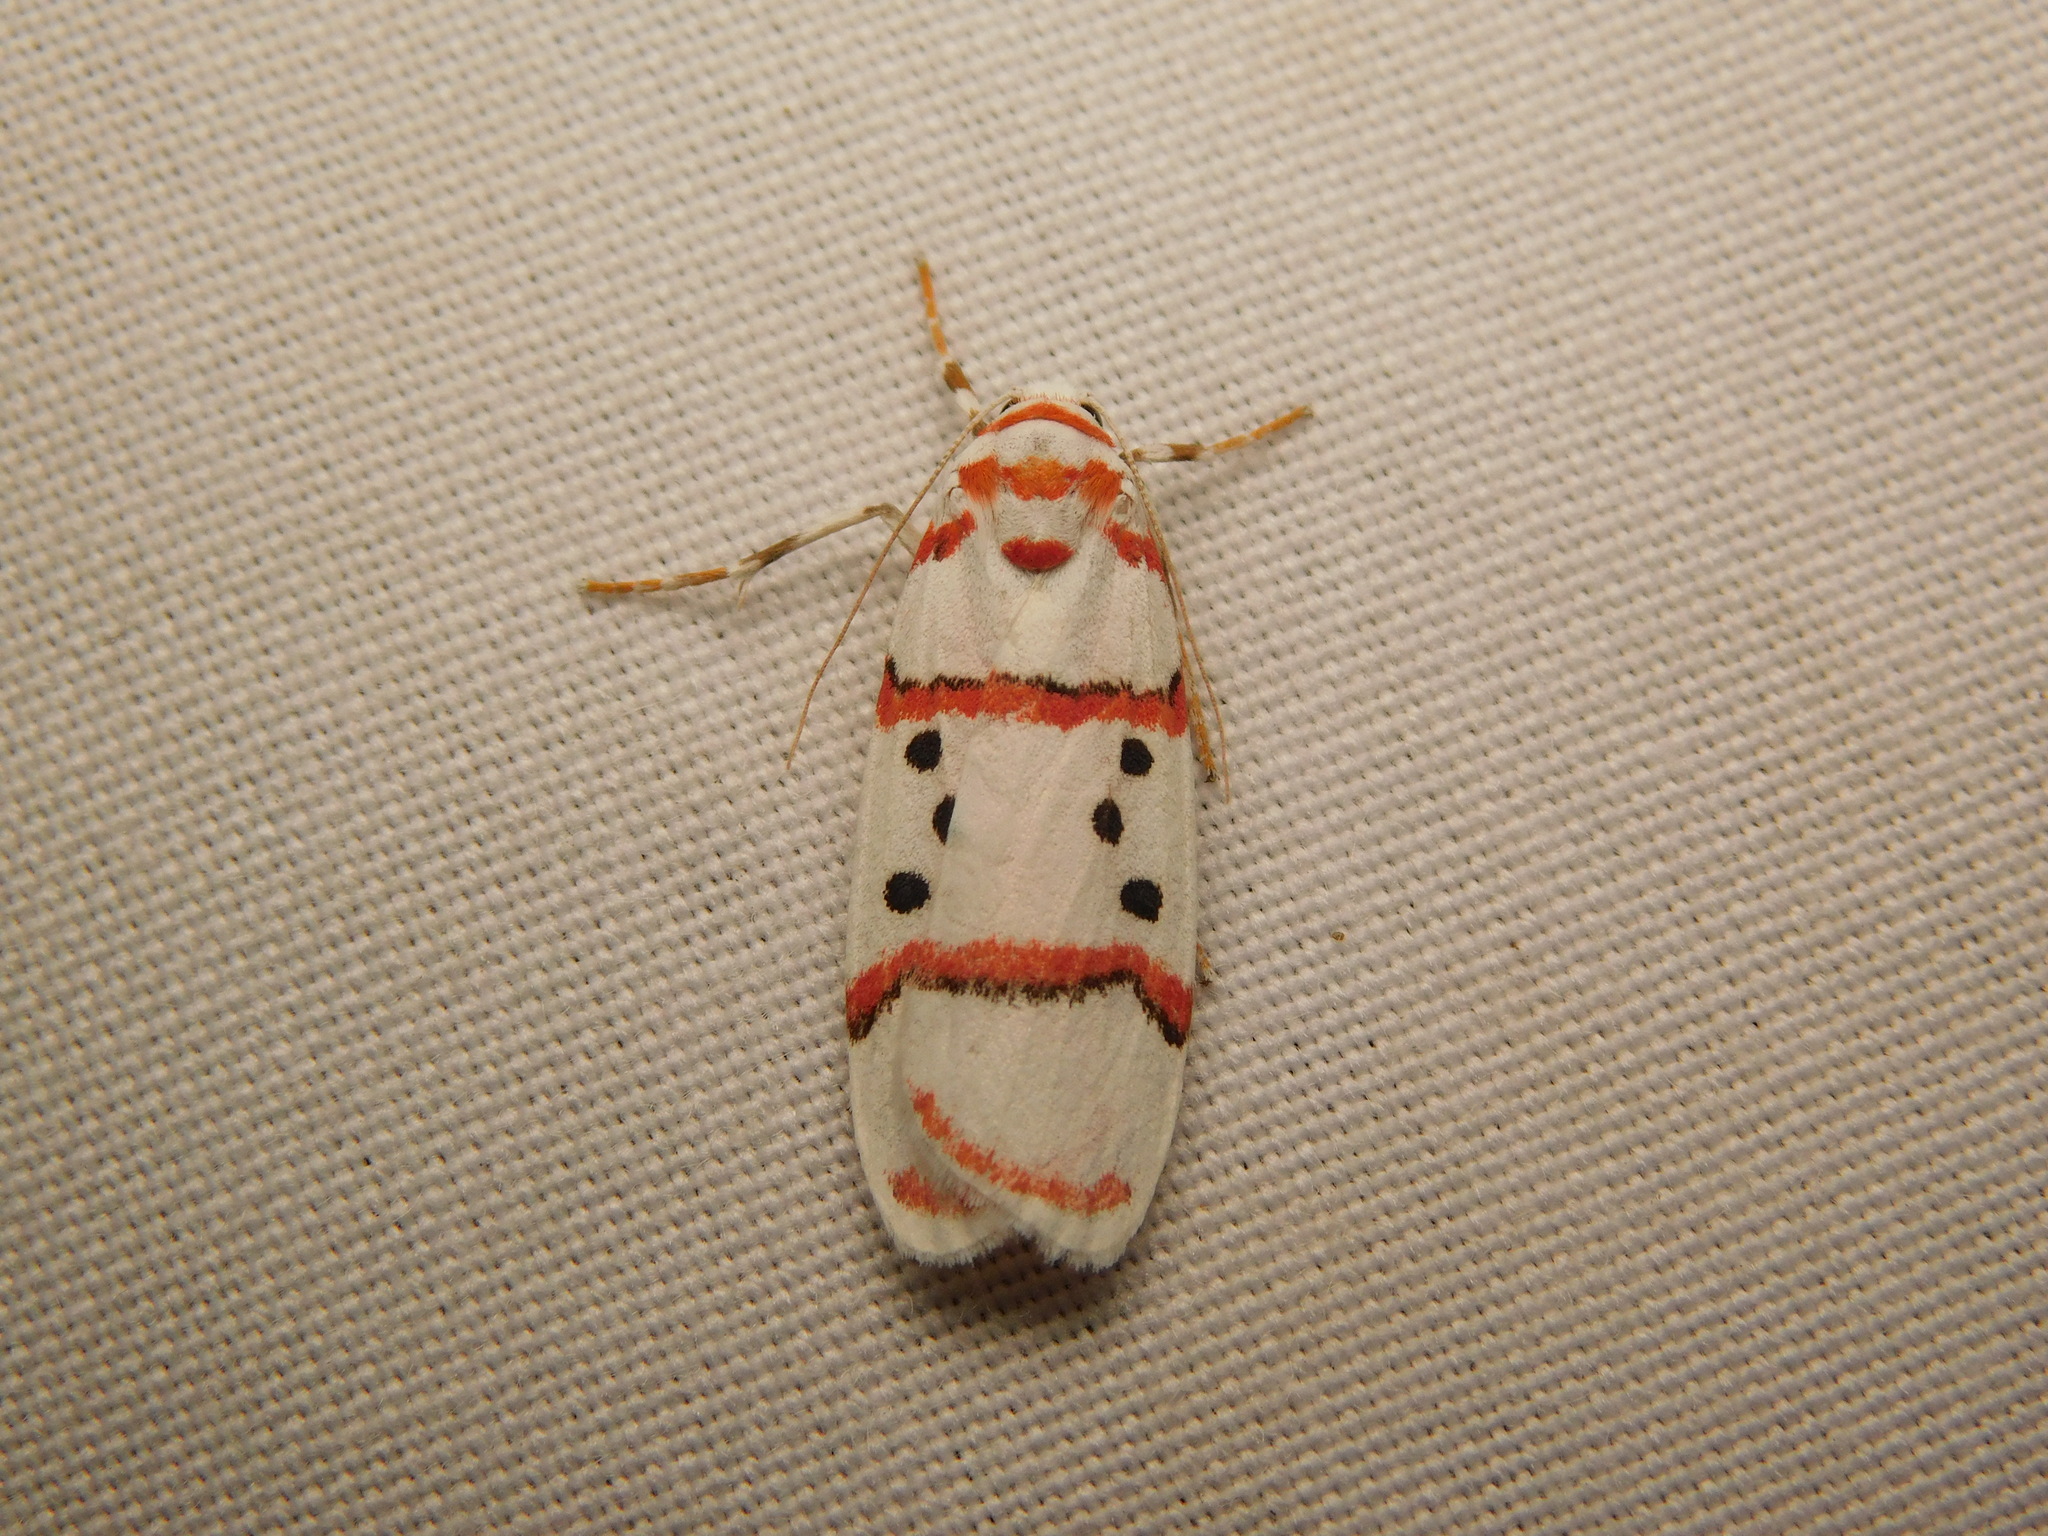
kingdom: Animalia
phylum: Arthropoda
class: Insecta
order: Lepidoptera
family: Erebidae
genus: Cyana
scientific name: Cyana linatula
